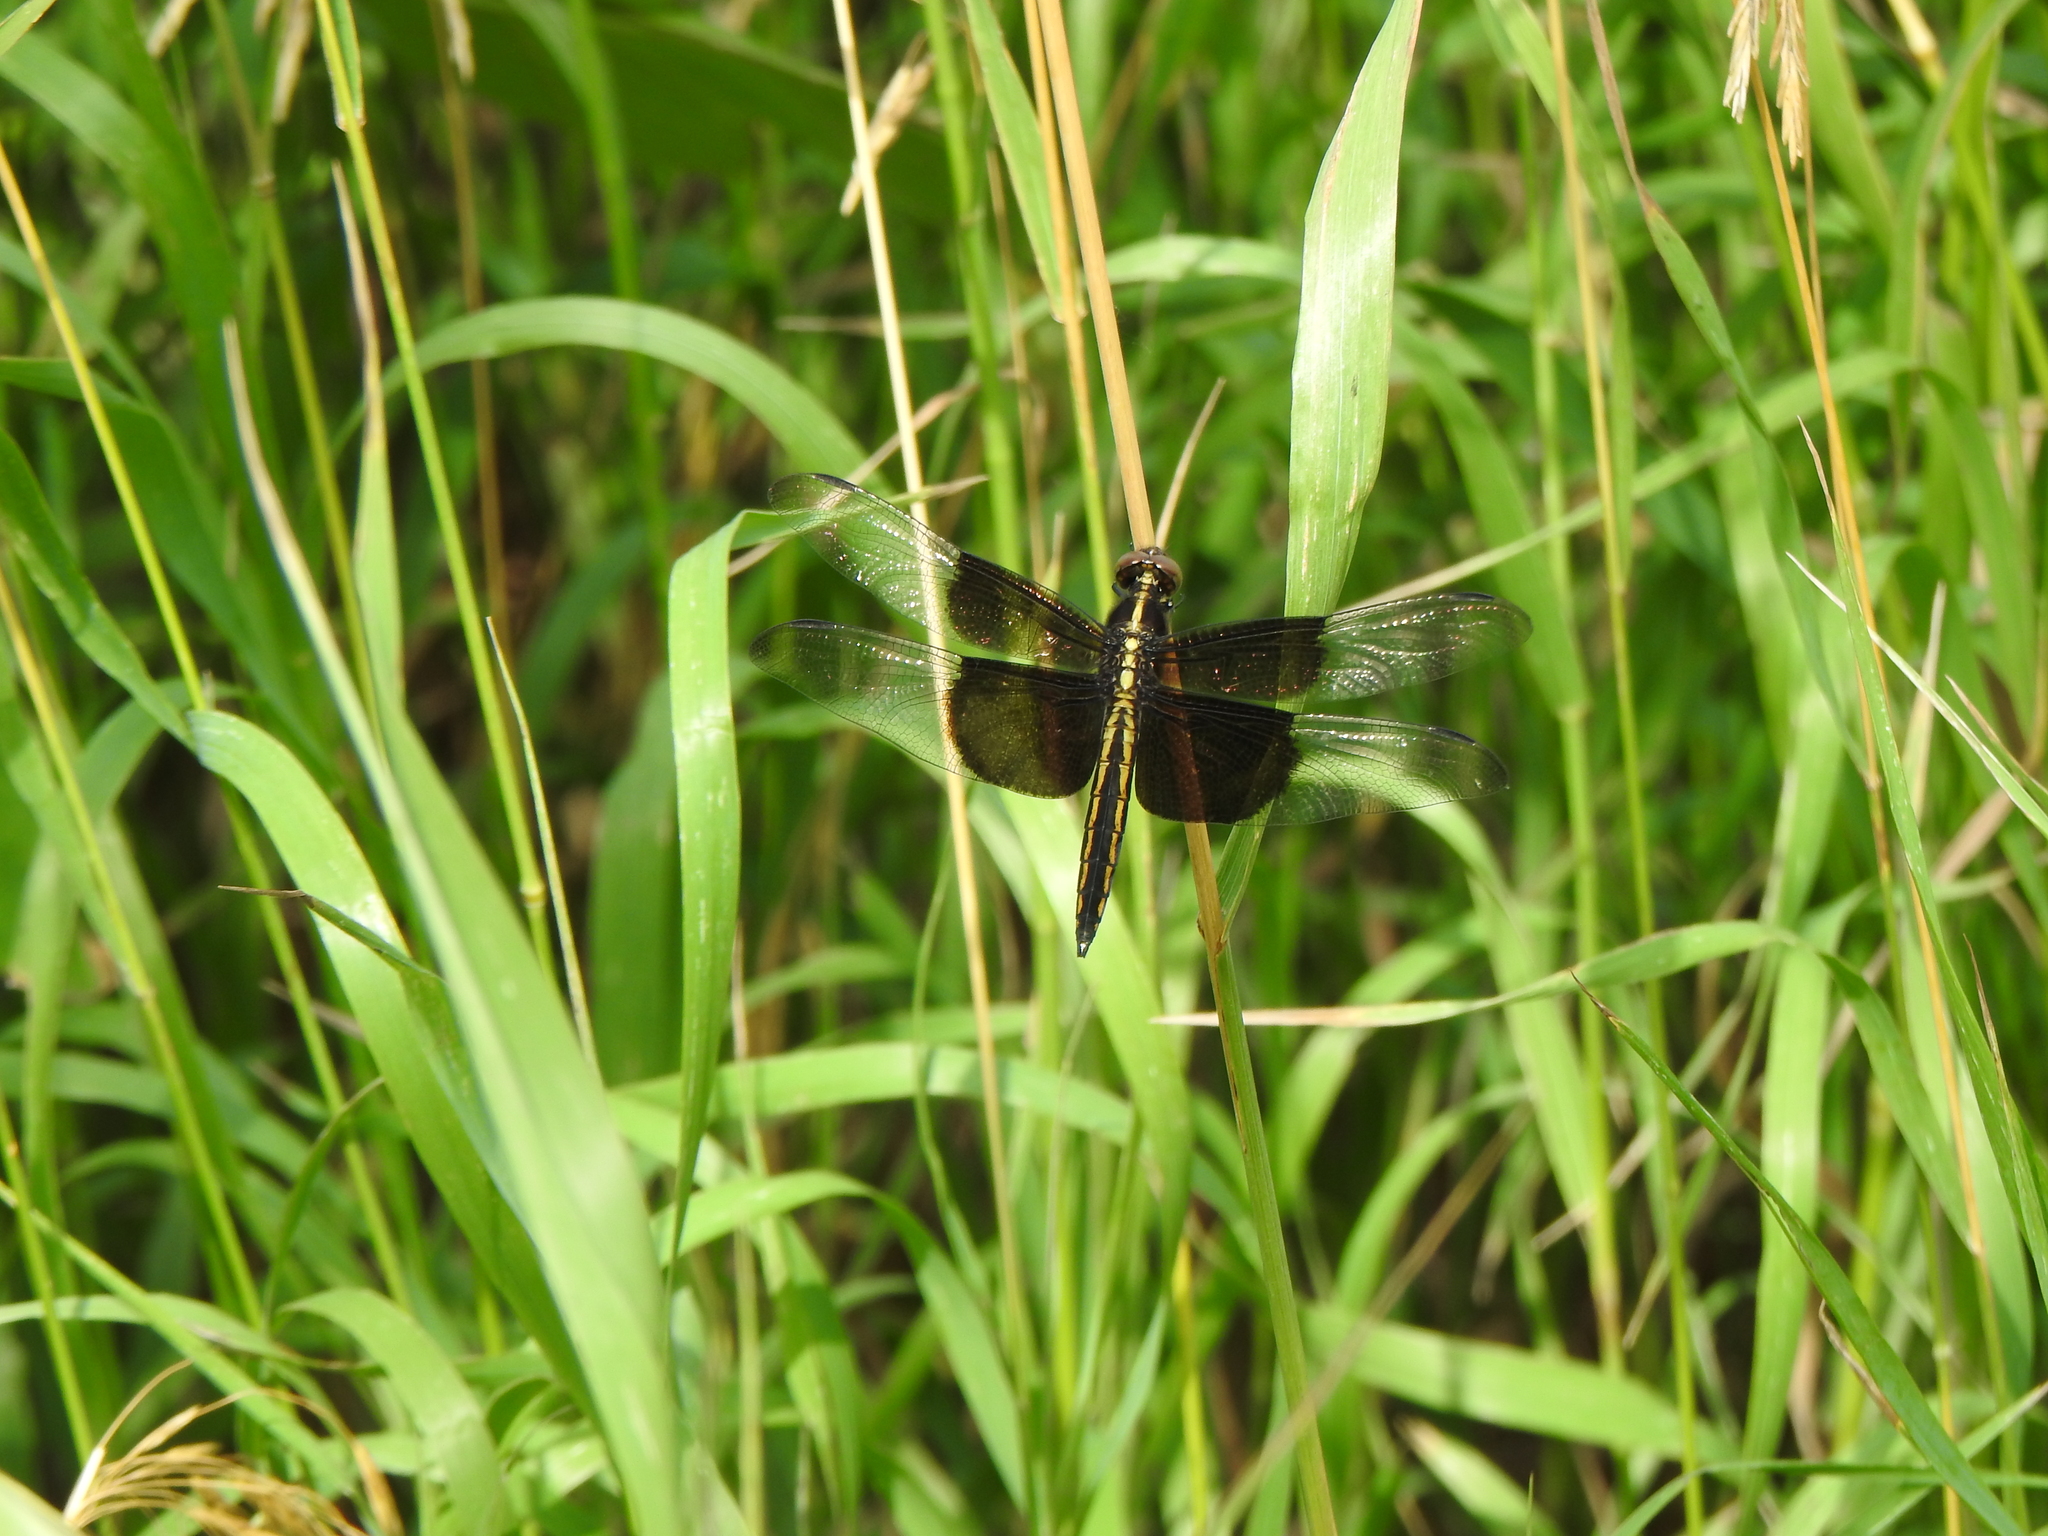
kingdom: Animalia
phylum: Arthropoda
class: Insecta
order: Odonata
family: Libellulidae
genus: Libellula
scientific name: Libellula luctuosa
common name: Widow skimmer
